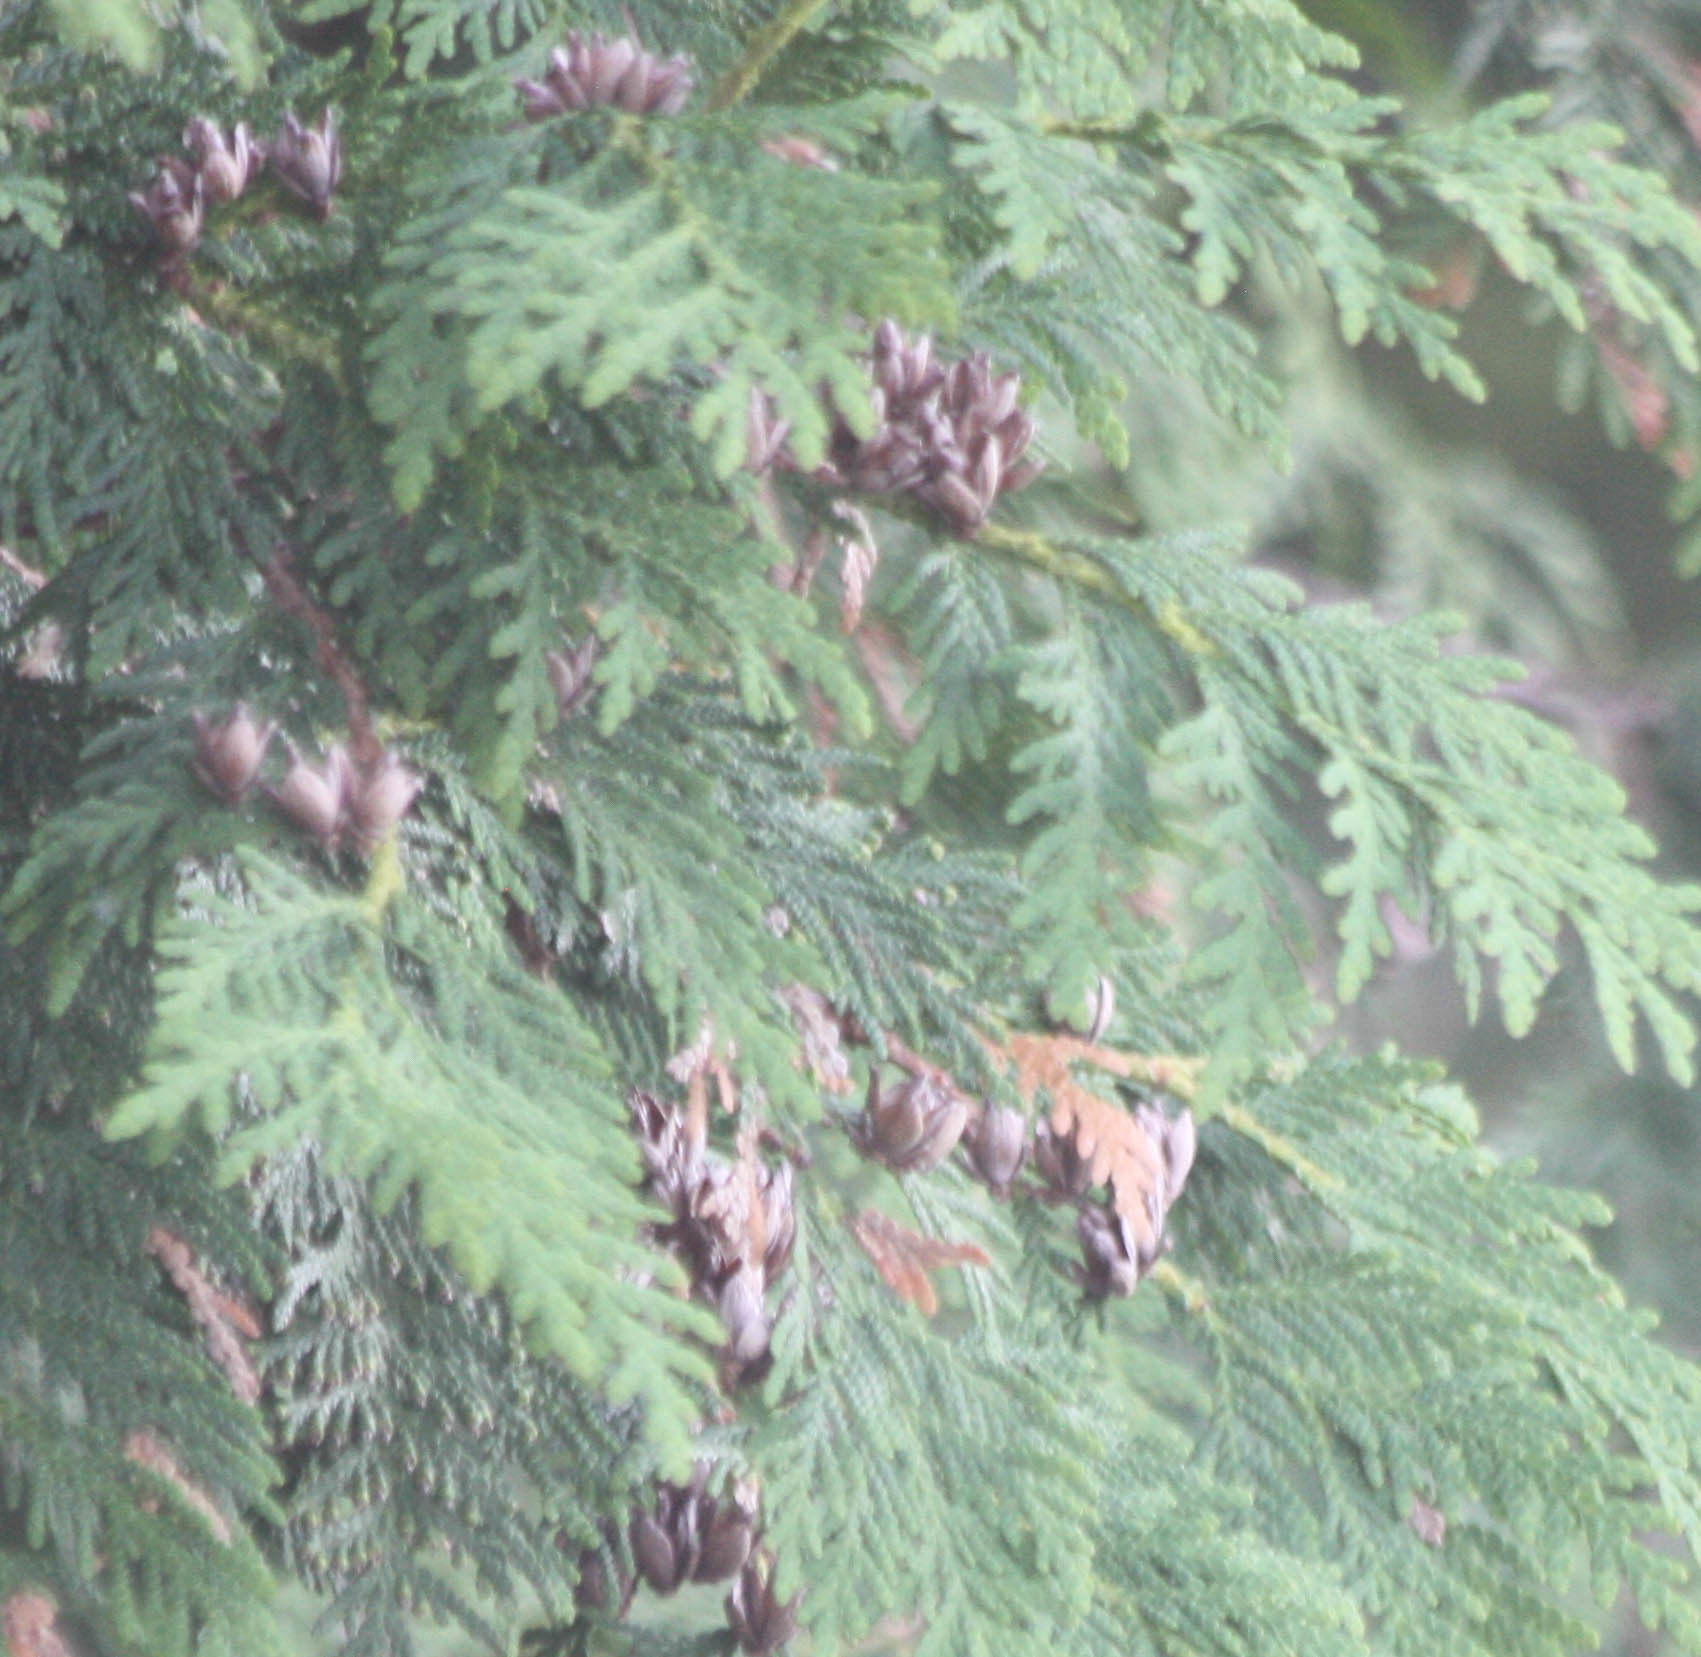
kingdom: Plantae
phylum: Tracheophyta
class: Pinopsida
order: Pinales
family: Cupressaceae
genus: Thuja
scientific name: Thuja occidentalis
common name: Northern white-cedar
